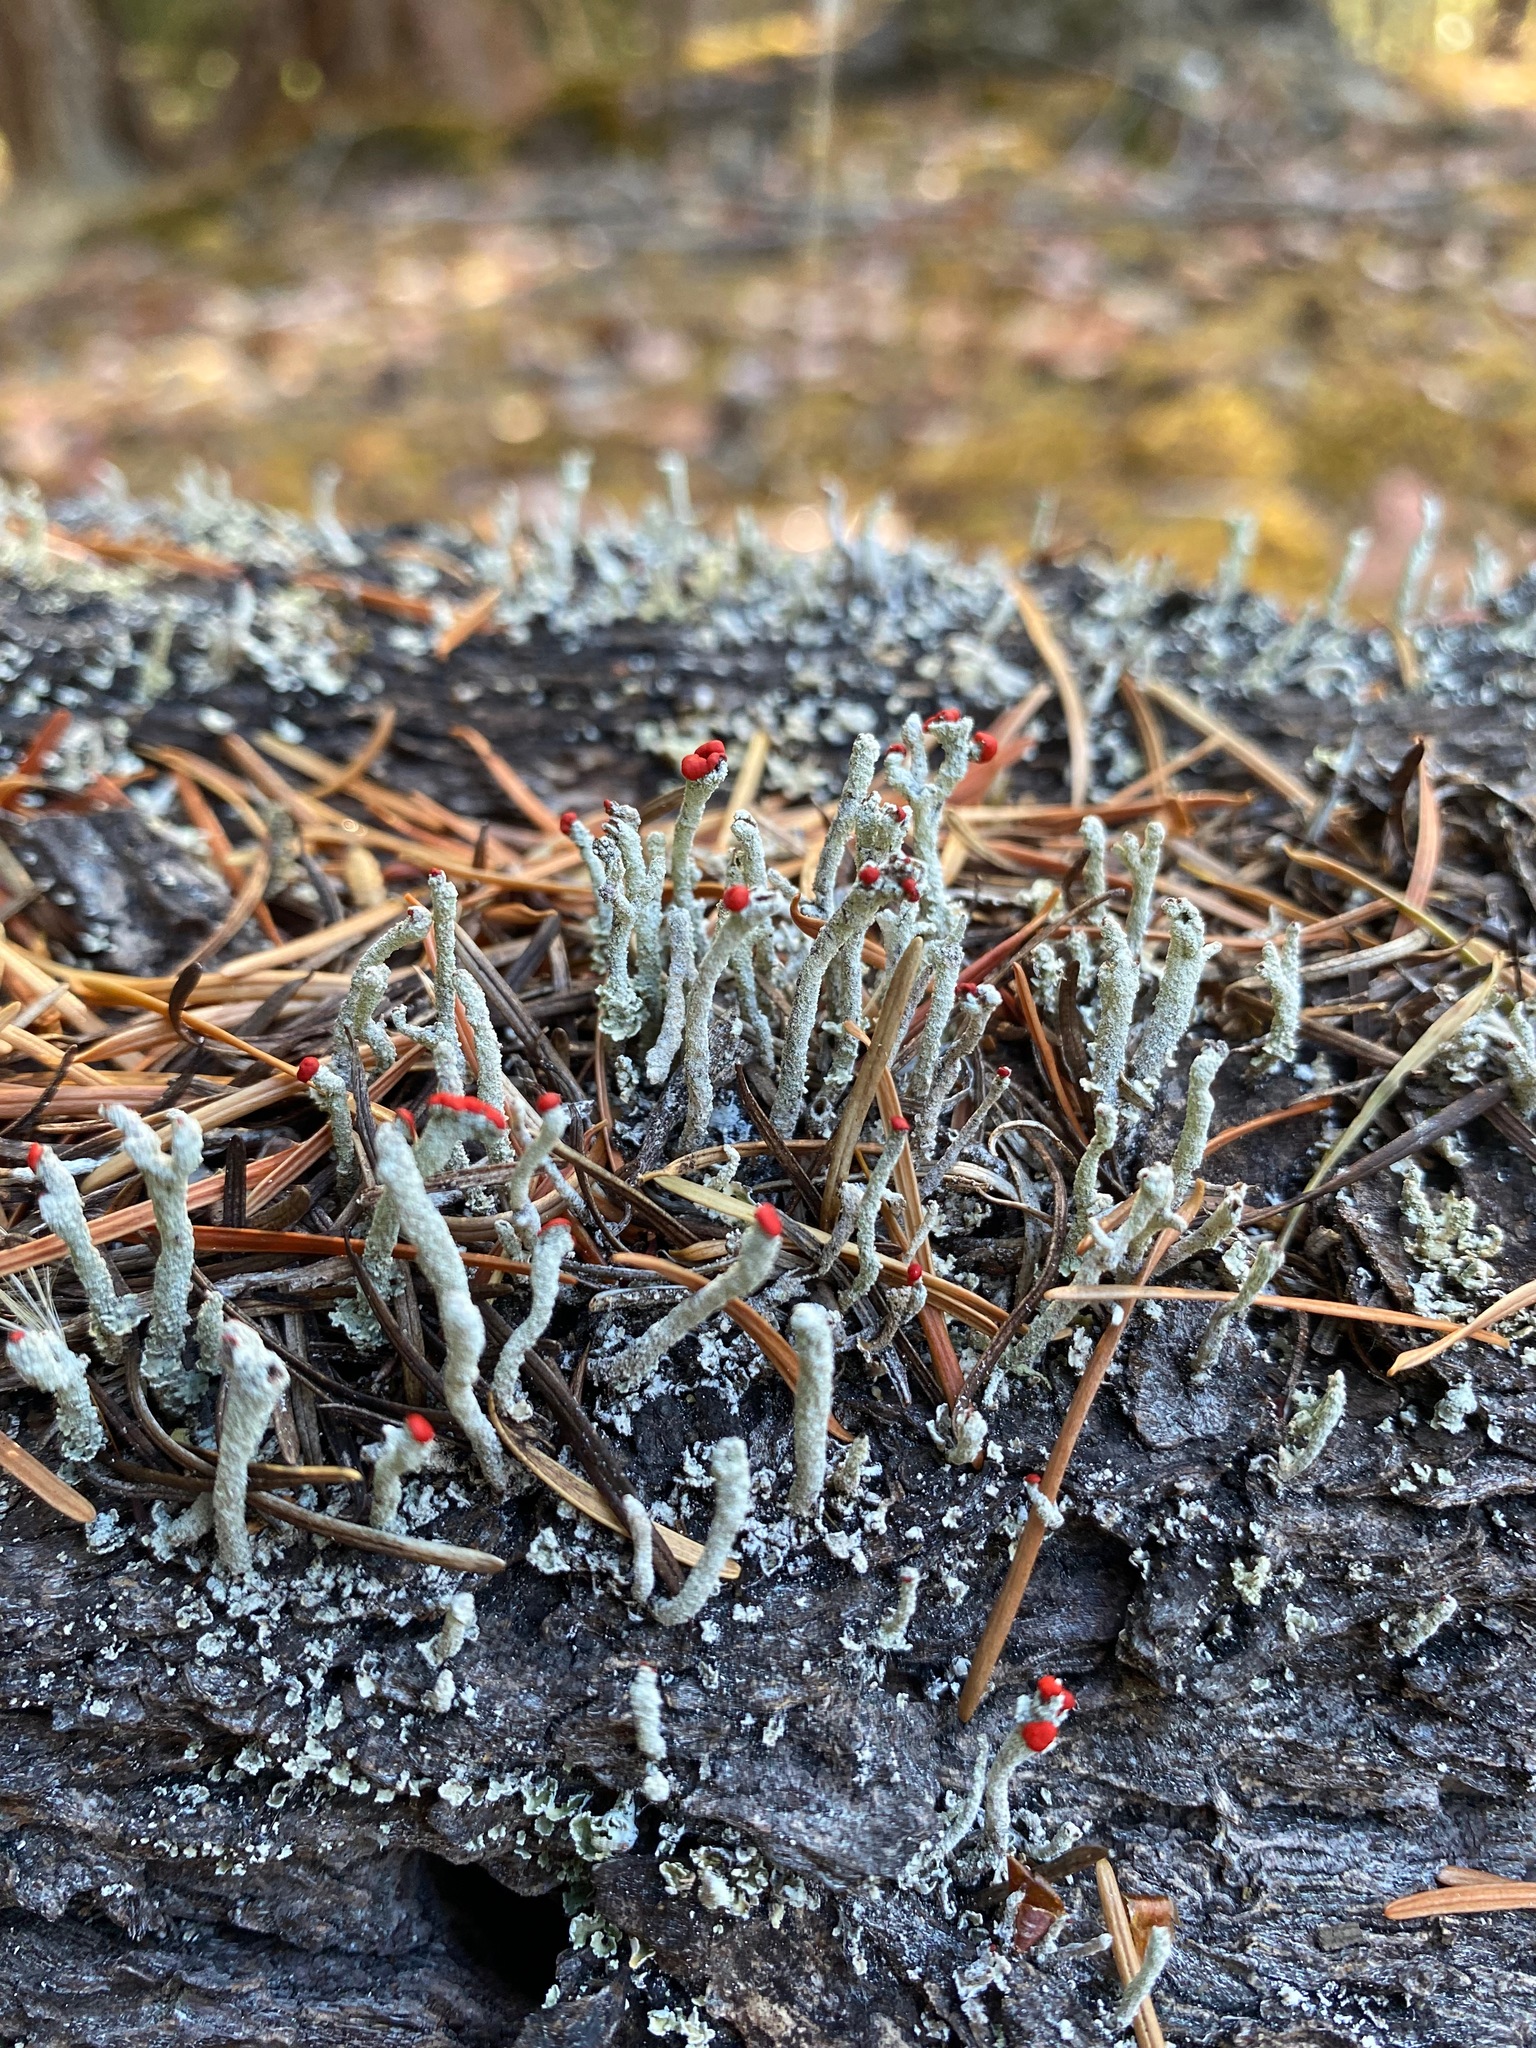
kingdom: Fungi
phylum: Ascomycota
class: Lecanoromycetes
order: Lecanorales
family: Cladoniaceae
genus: Cladonia
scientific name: Cladonia macilenta
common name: Lipstick powderhorn
